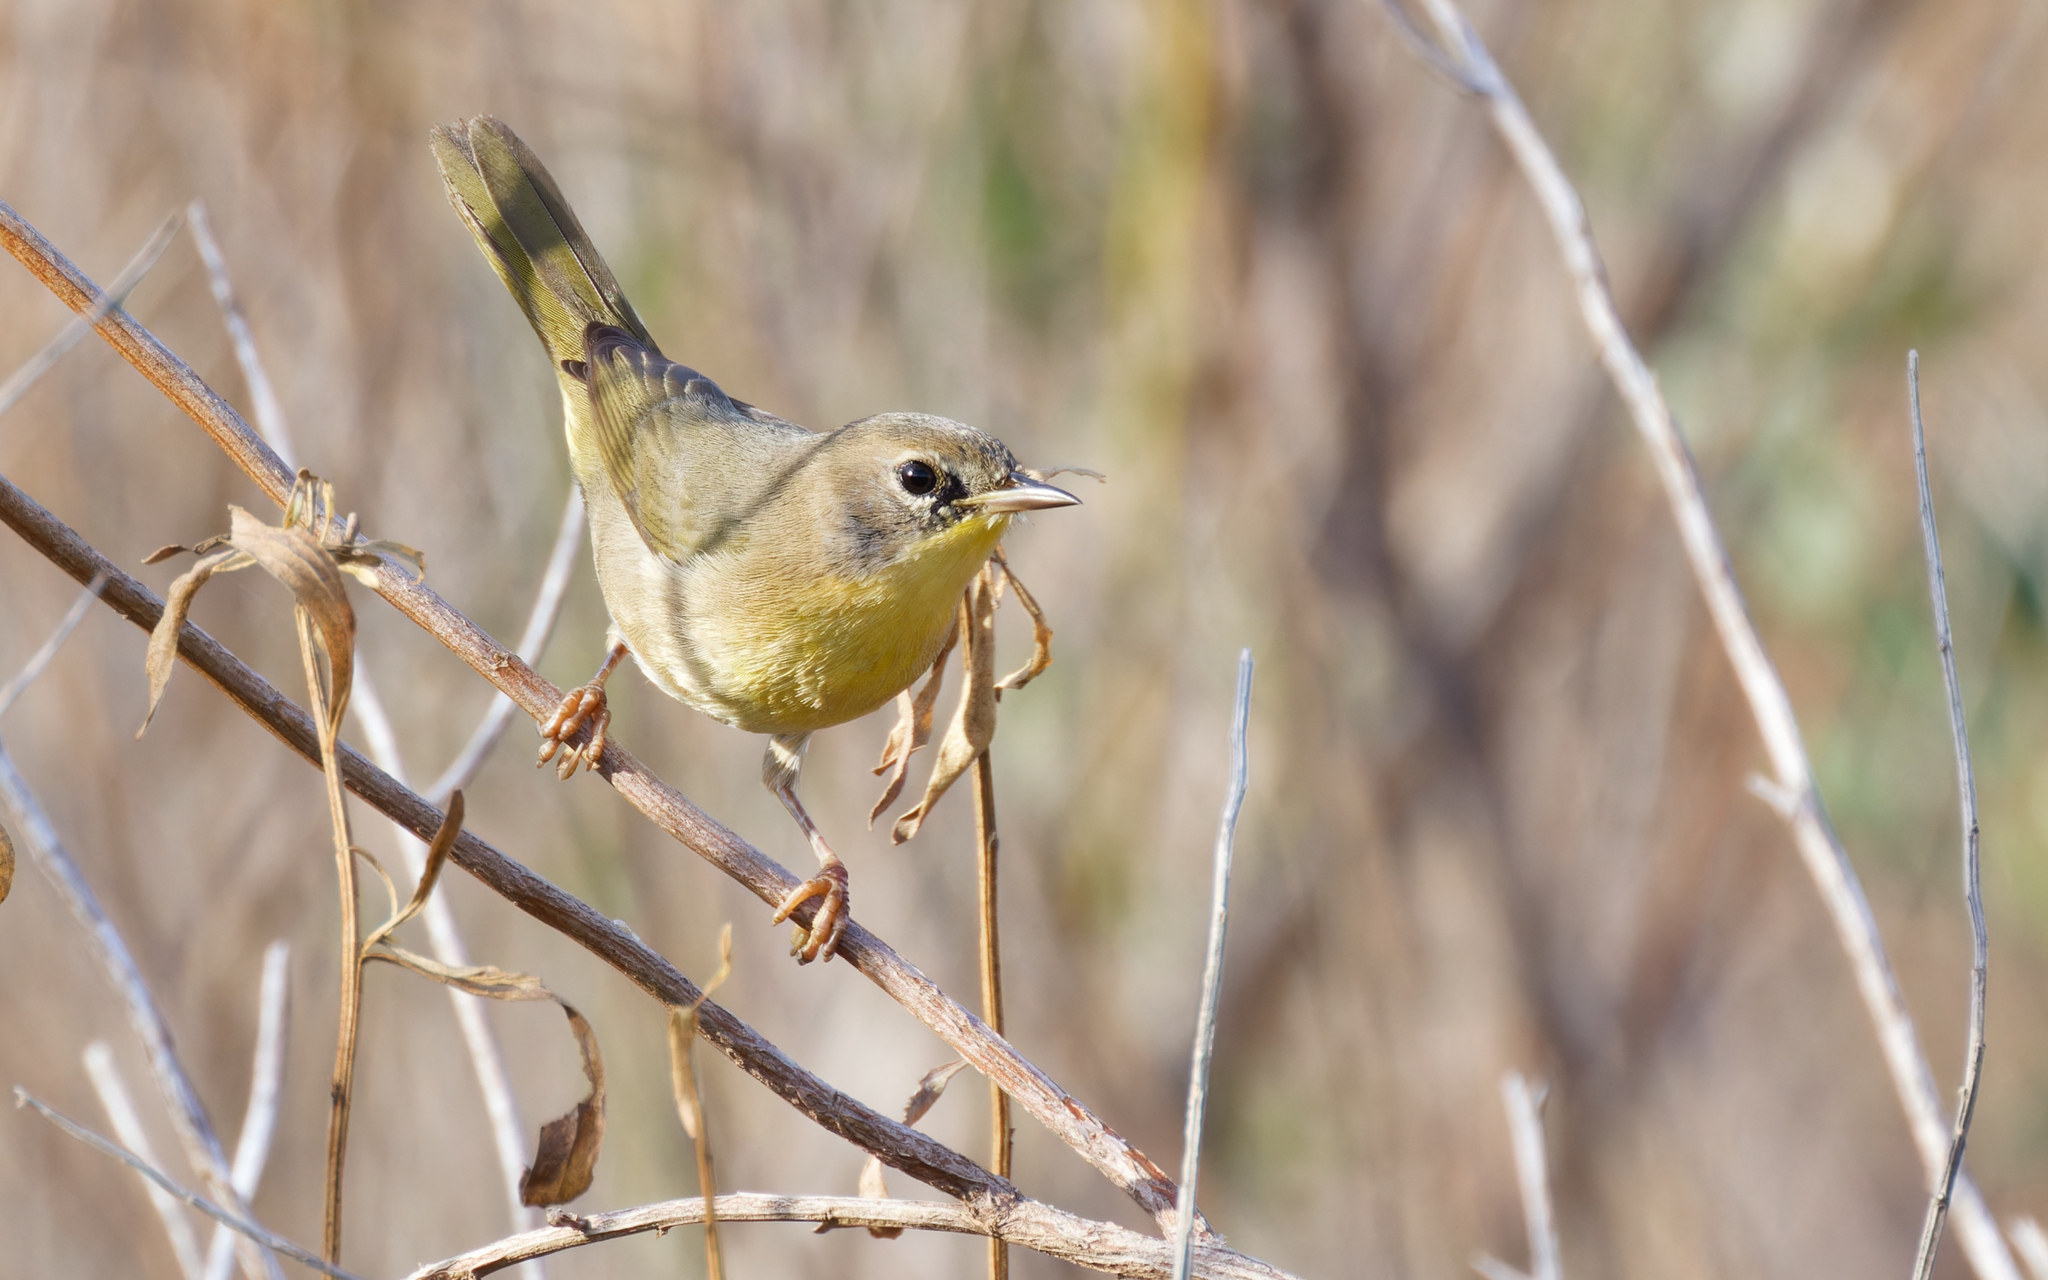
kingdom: Animalia
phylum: Chordata
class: Aves
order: Passeriformes
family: Parulidae
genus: Geothlypis
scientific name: Geothlypis trichas
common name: Common yellowthroat
